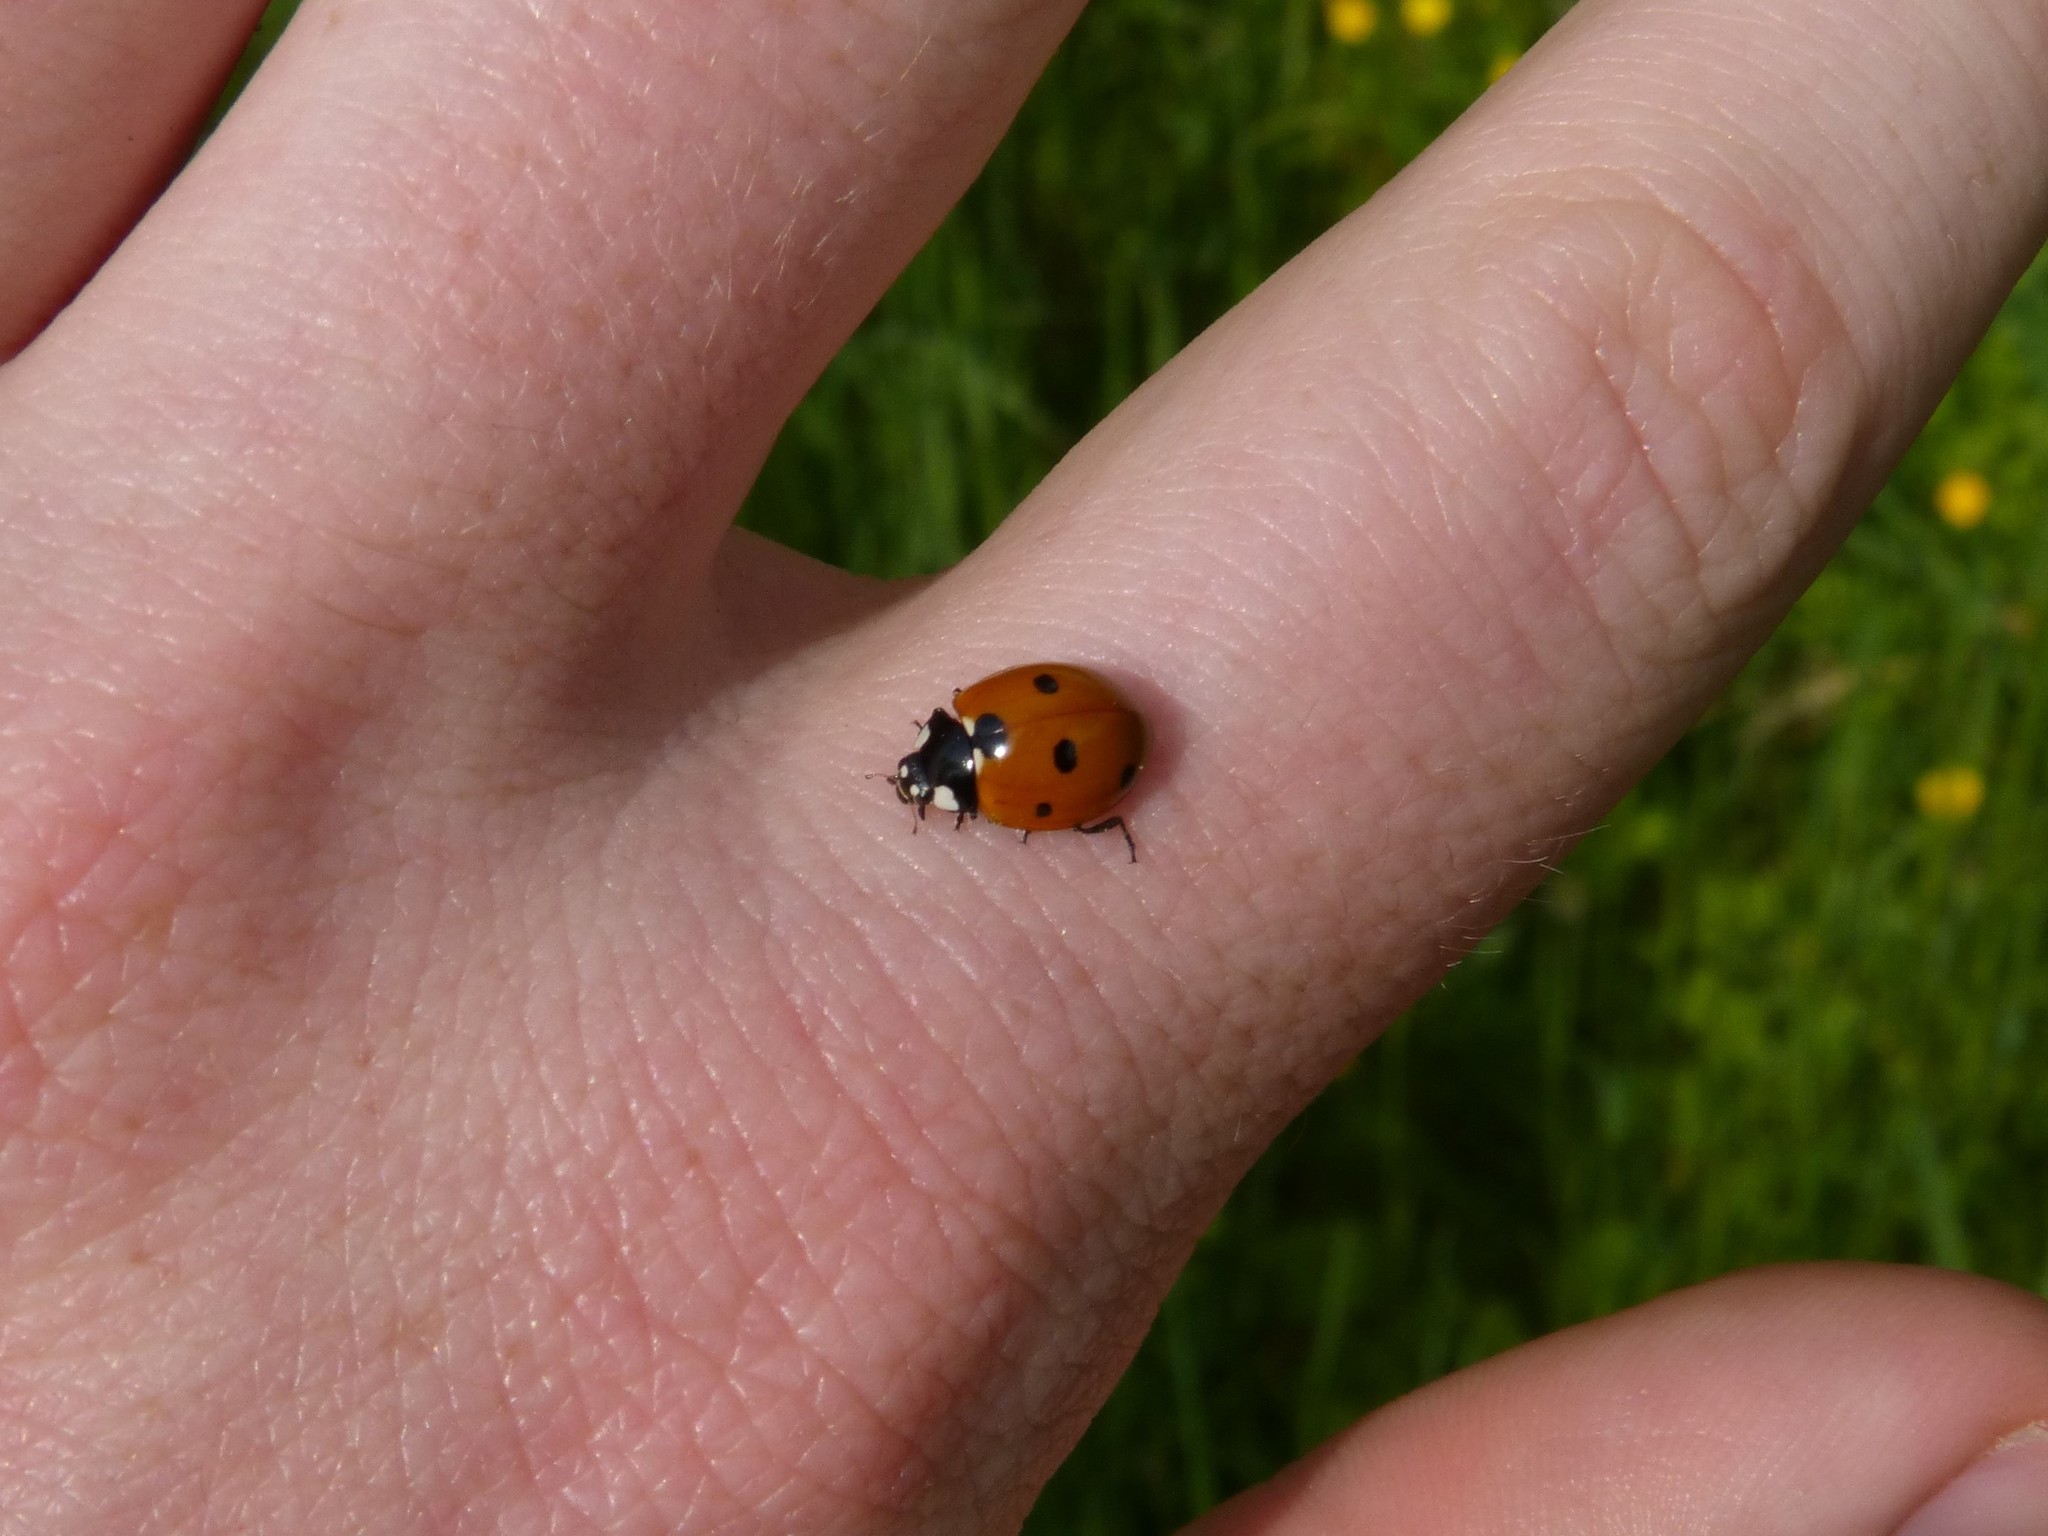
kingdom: Animalia
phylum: Arthropoda
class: Insecta
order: Coleoptera
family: Coccinellidae
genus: Coccinella
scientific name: Coccinella septempunctata
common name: Sevenspotted lady beetle
